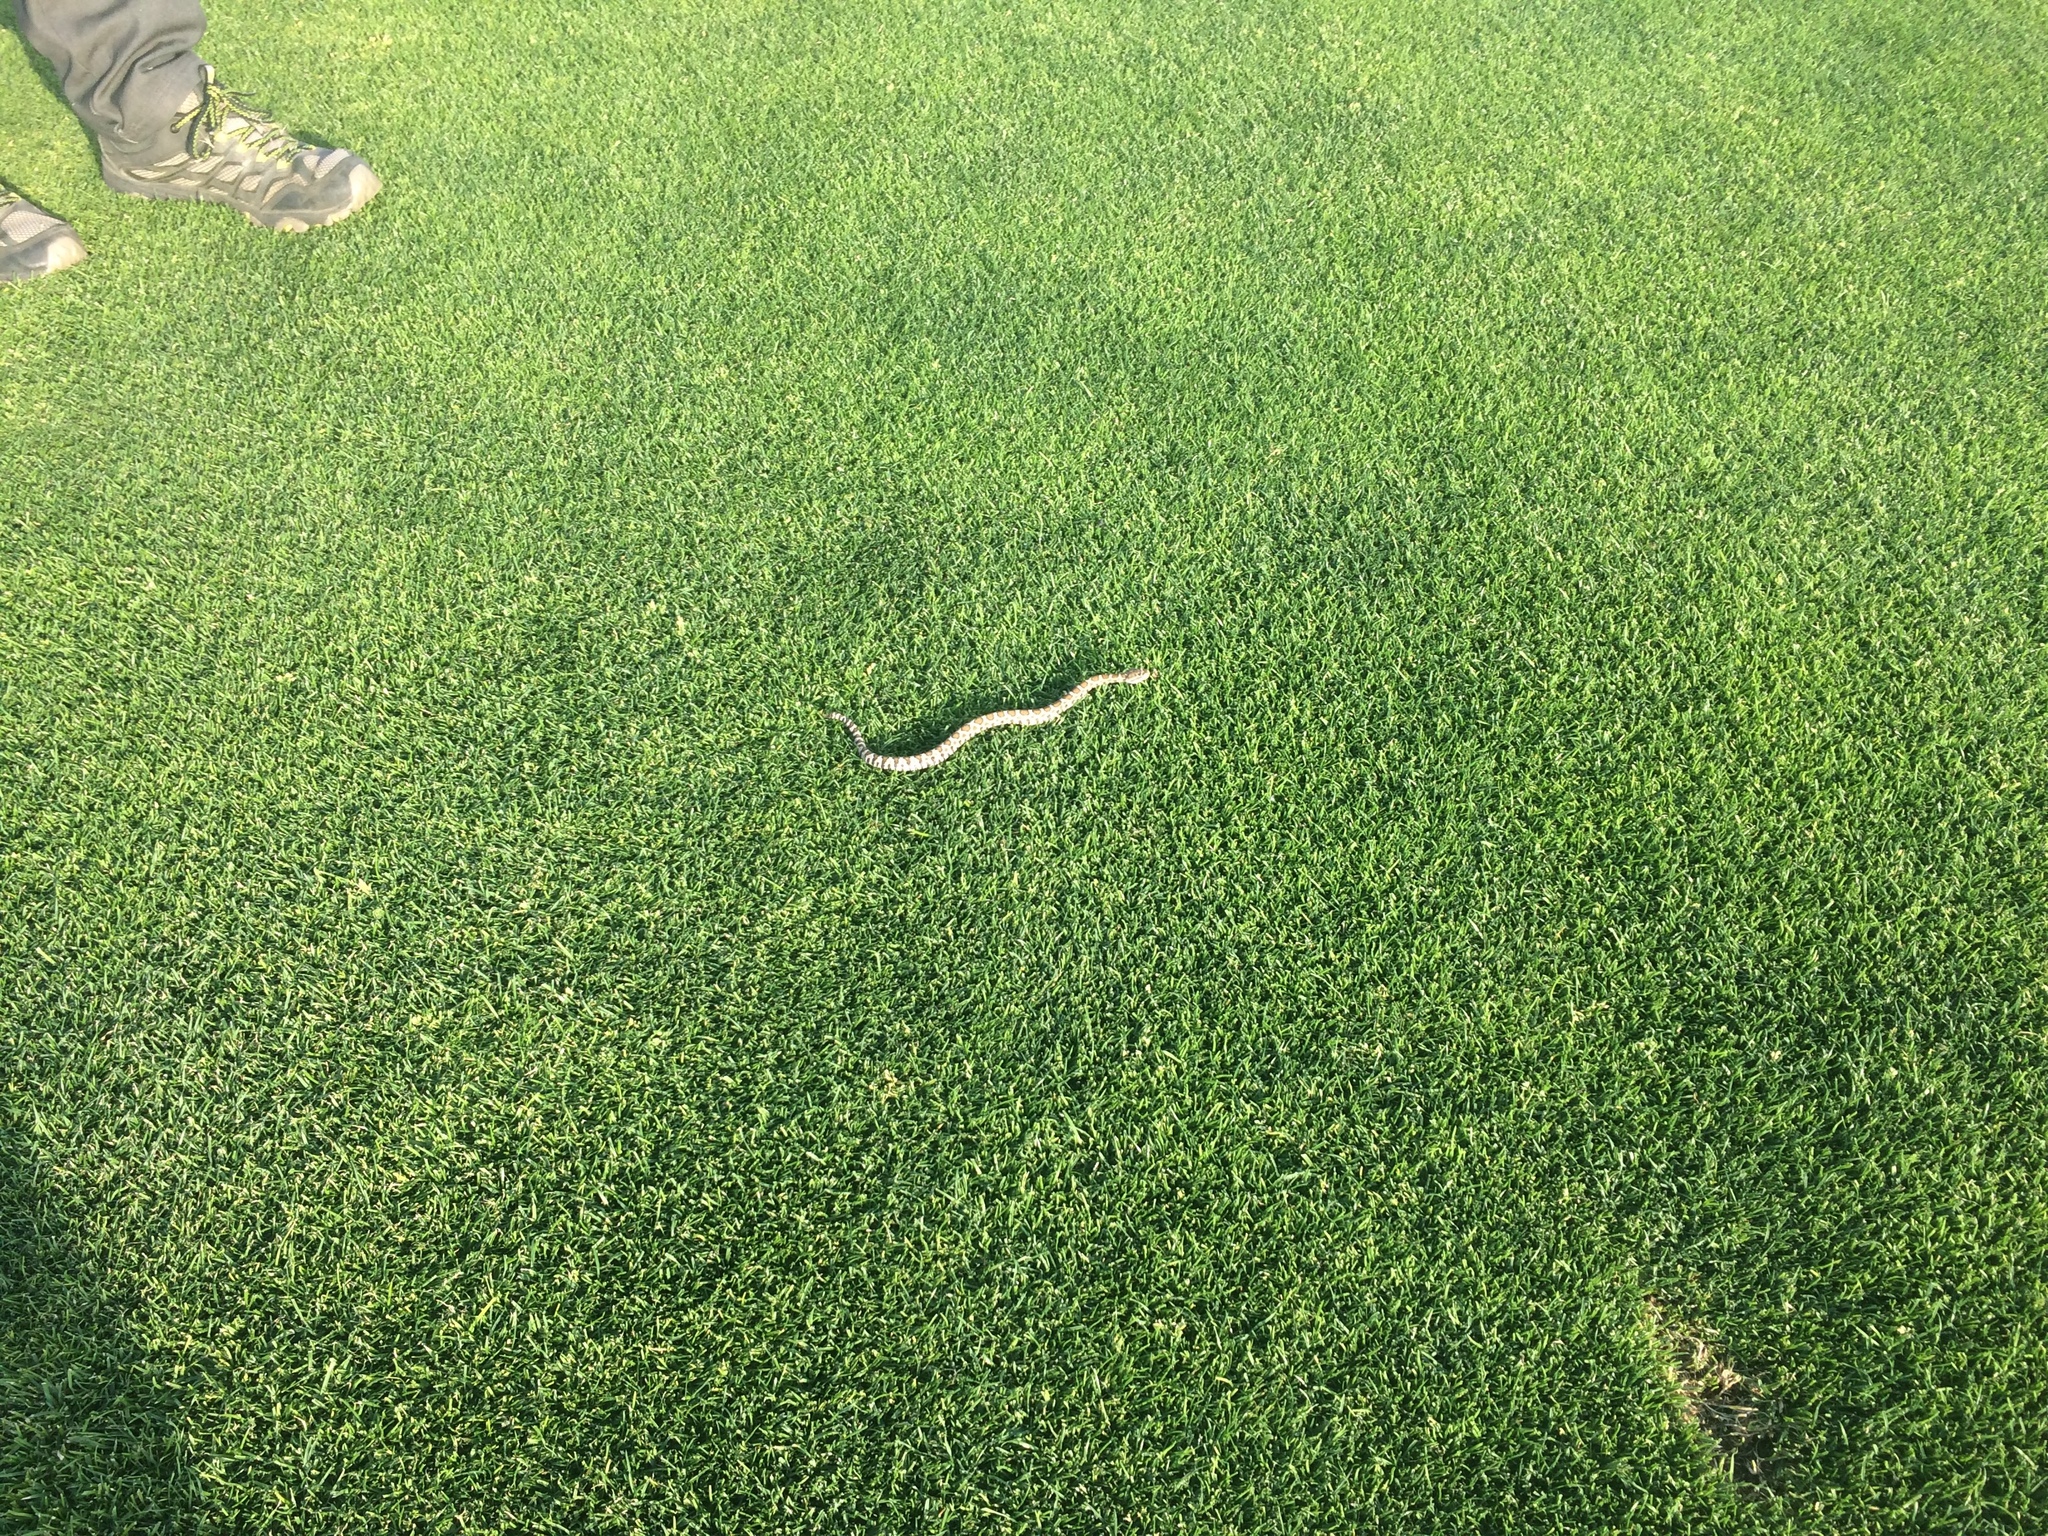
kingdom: Animalia
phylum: Chordata
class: Squamata
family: Viperidae
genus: Crotalus
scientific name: Crotalus oreganus
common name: Abyssus
